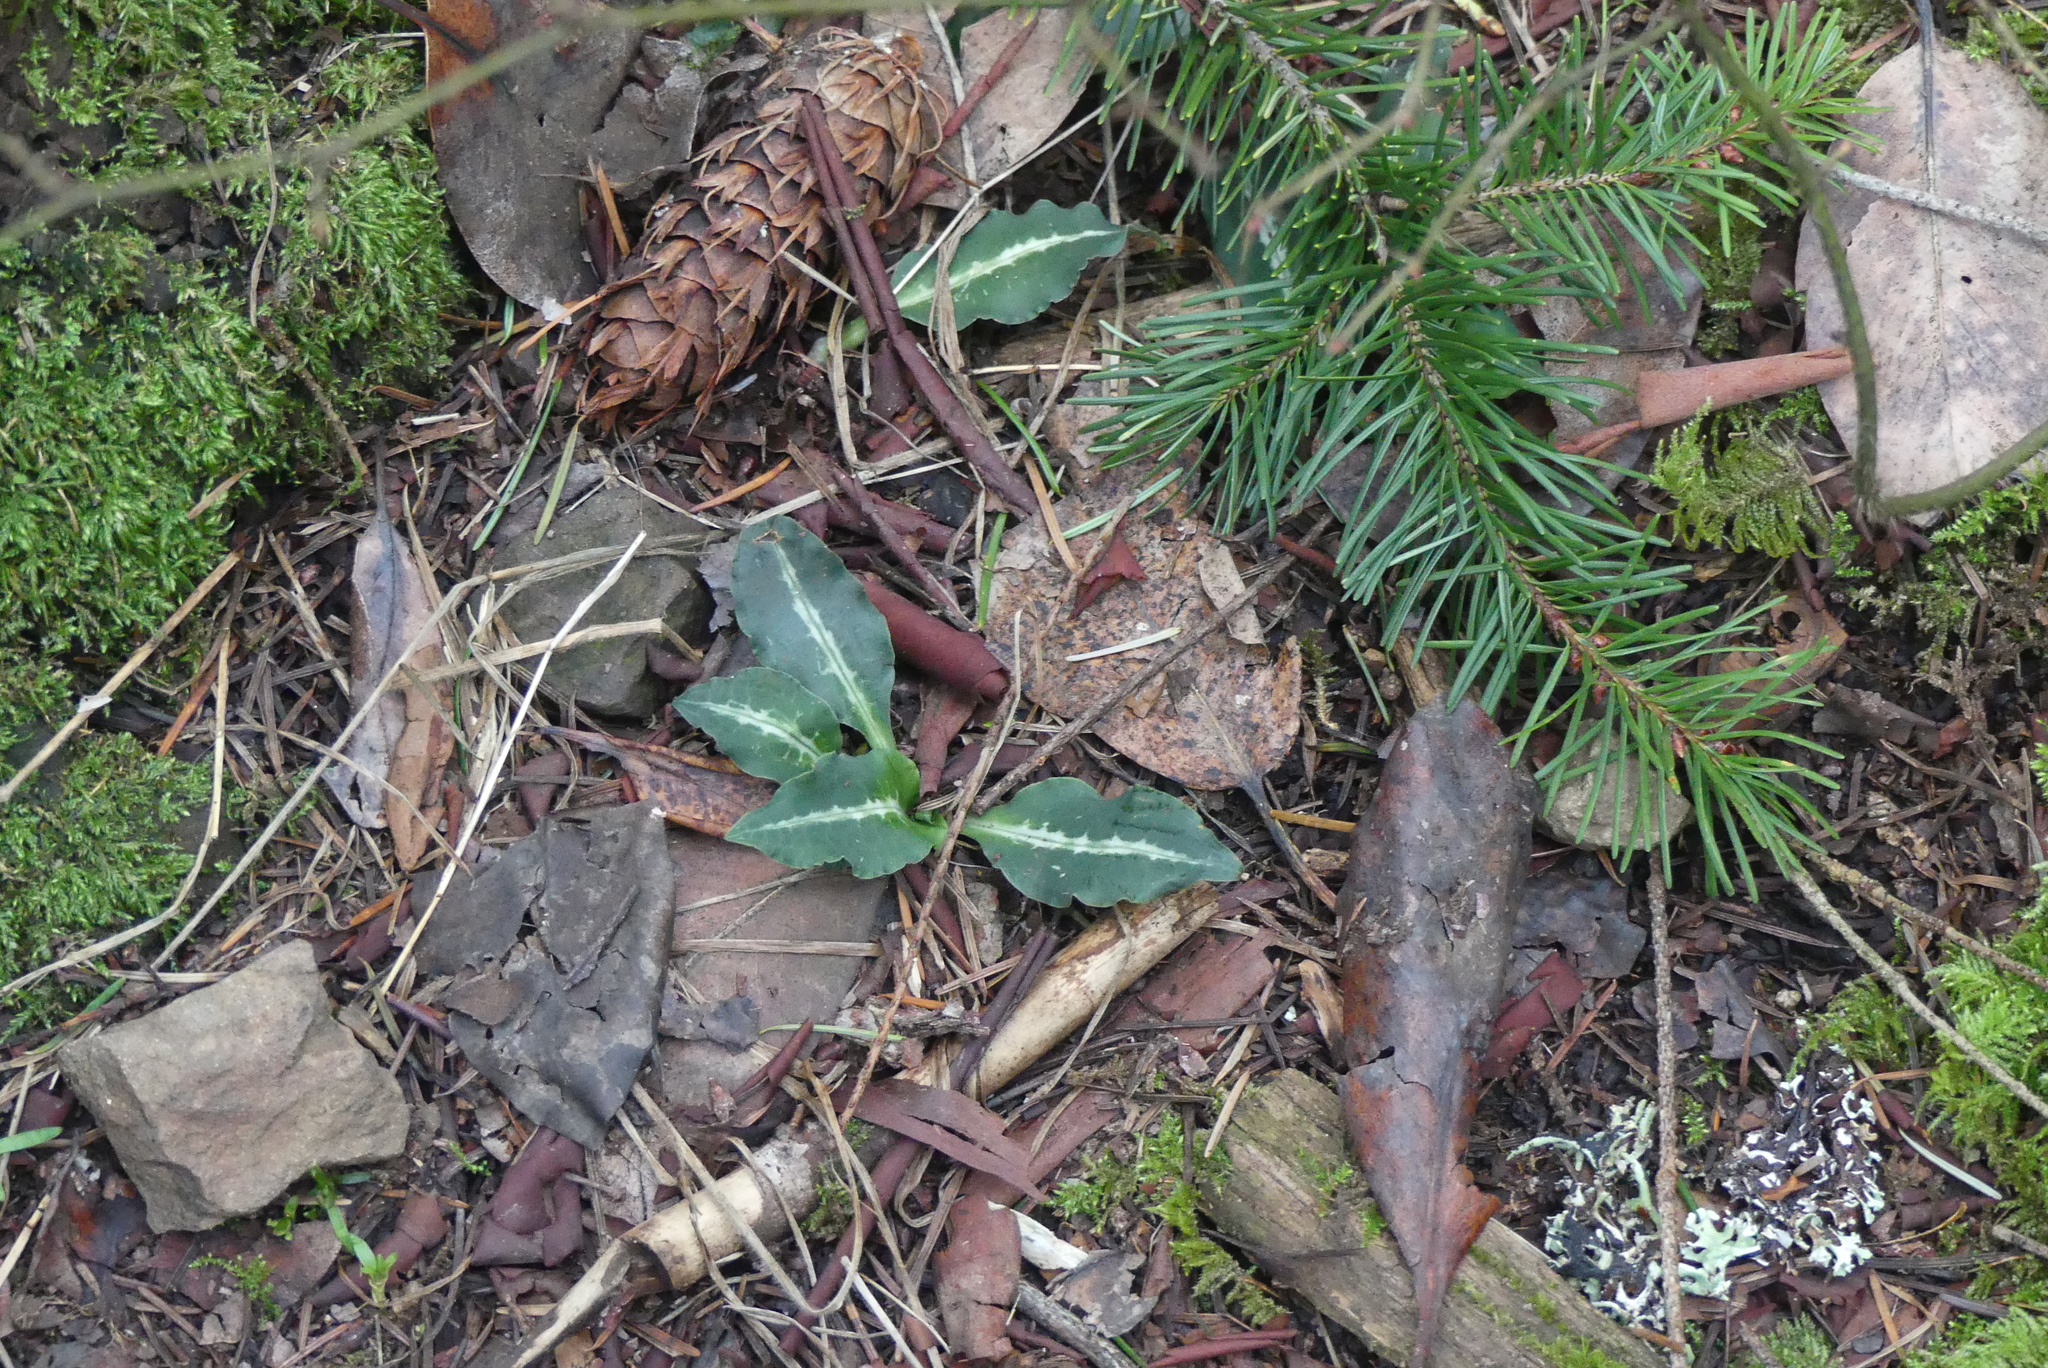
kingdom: Plantae
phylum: Tracheophyta
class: Liliopsida
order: Asparagales
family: Orchidaceae
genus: Goodyera
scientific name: Goodyera oblongifolia
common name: Giant rattlesnake-plantain
